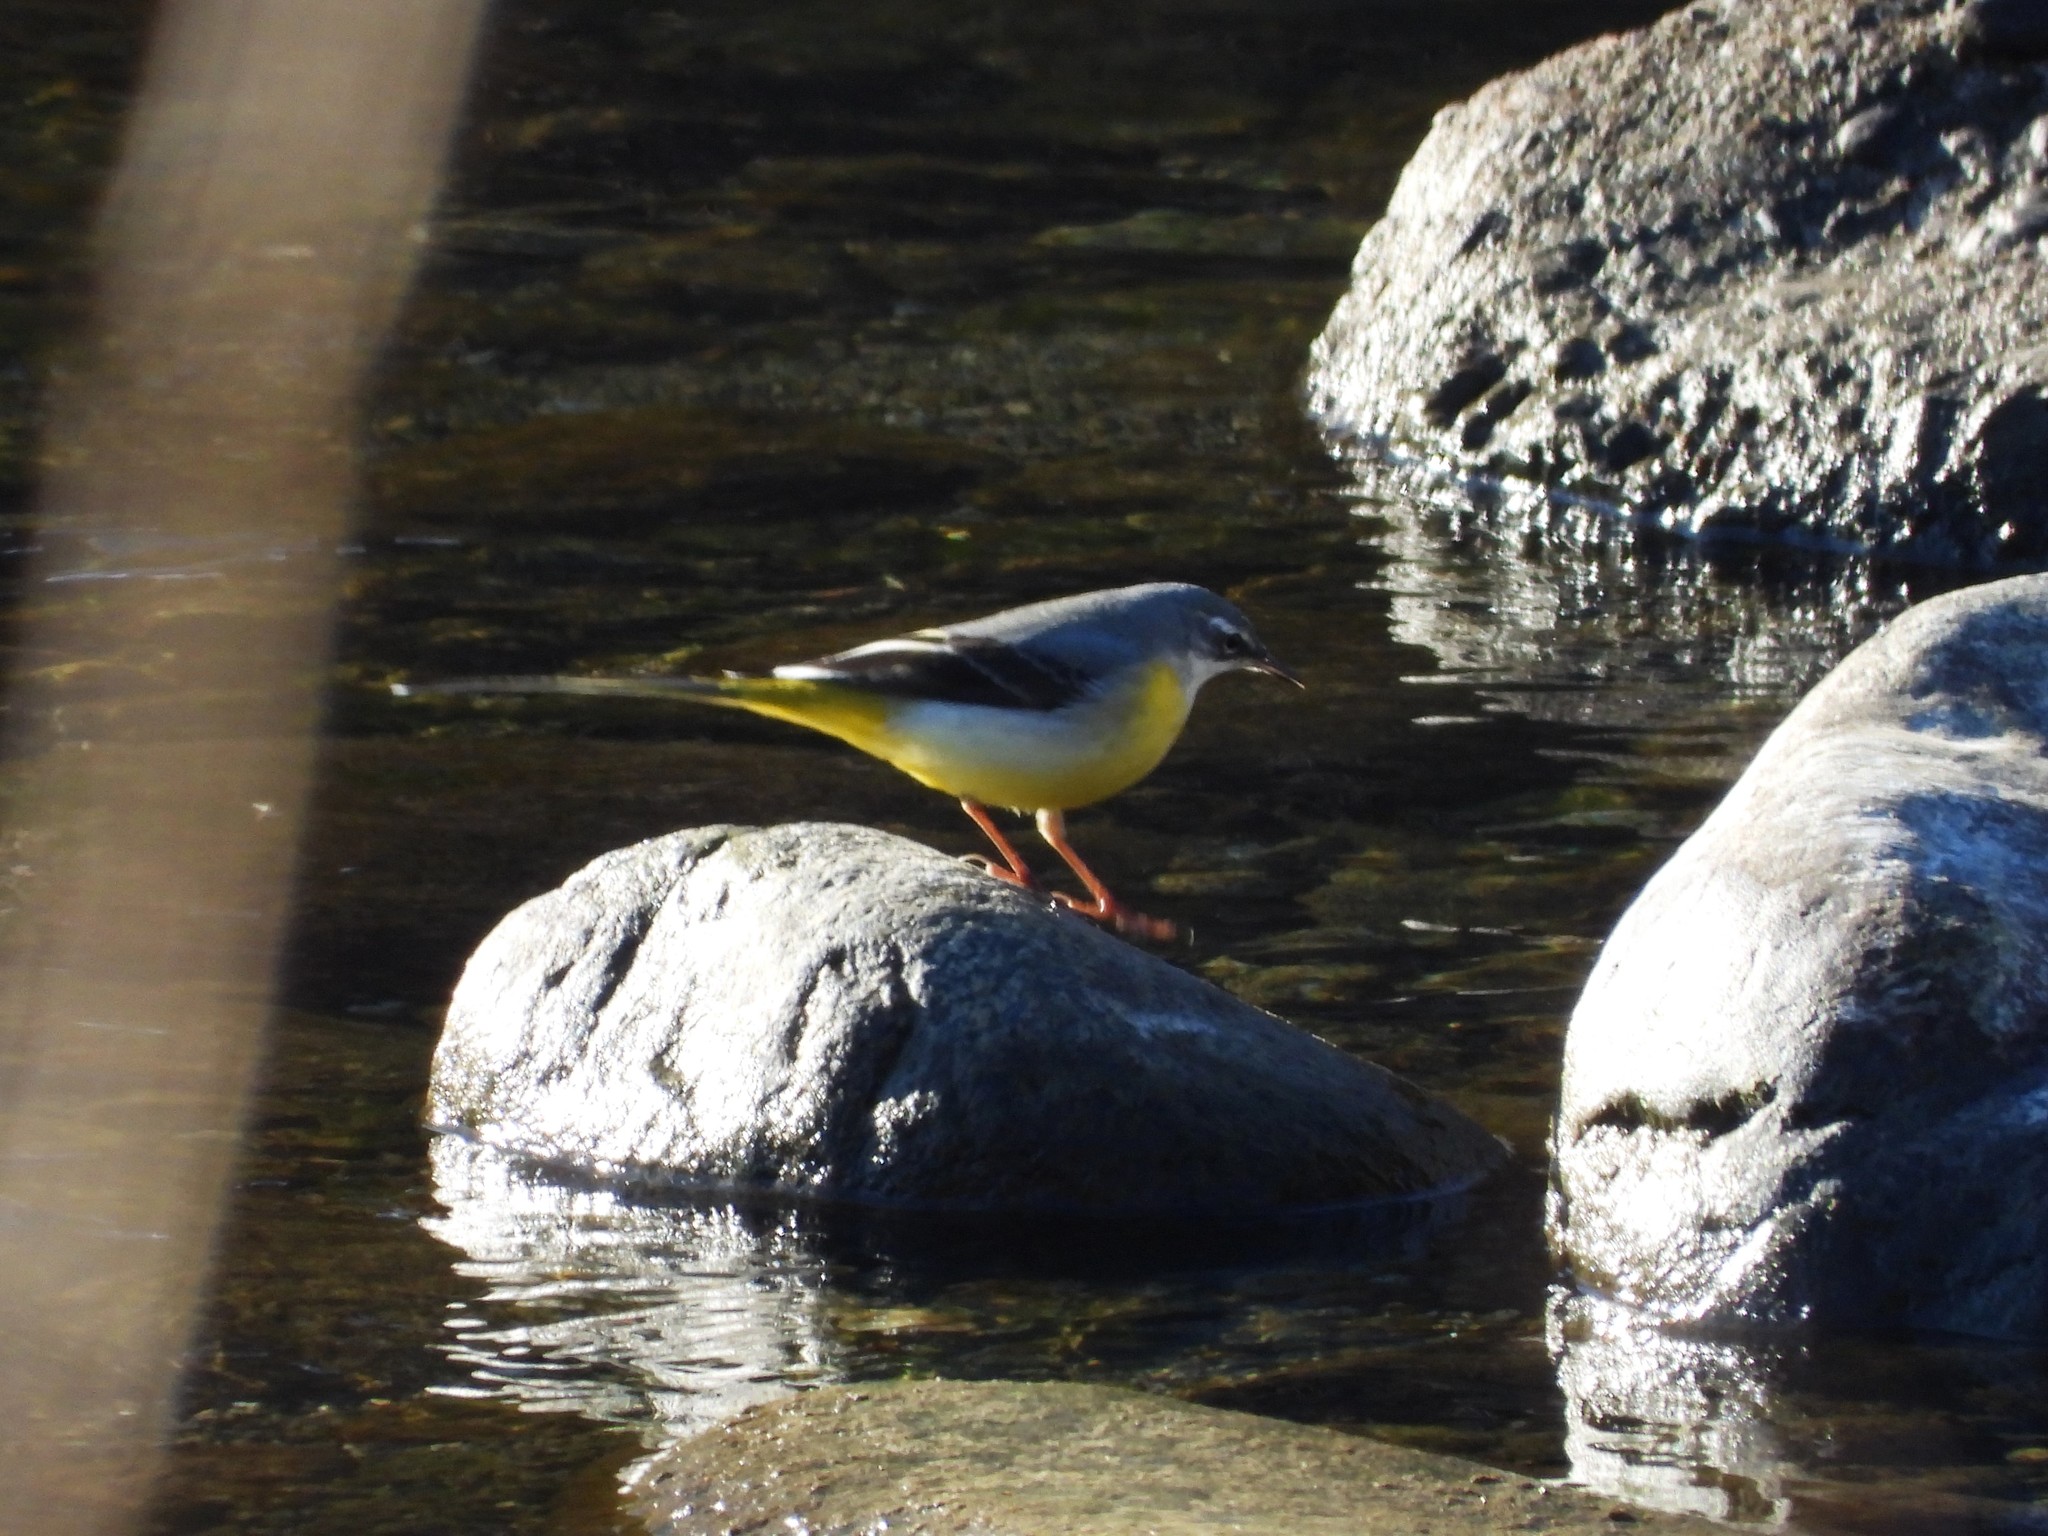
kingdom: Animalia
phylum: Chordata
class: Aves
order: Passeriformes
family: Motacillidae
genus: Motacilla
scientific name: Motacilla cinerea
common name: Grey wagtail
